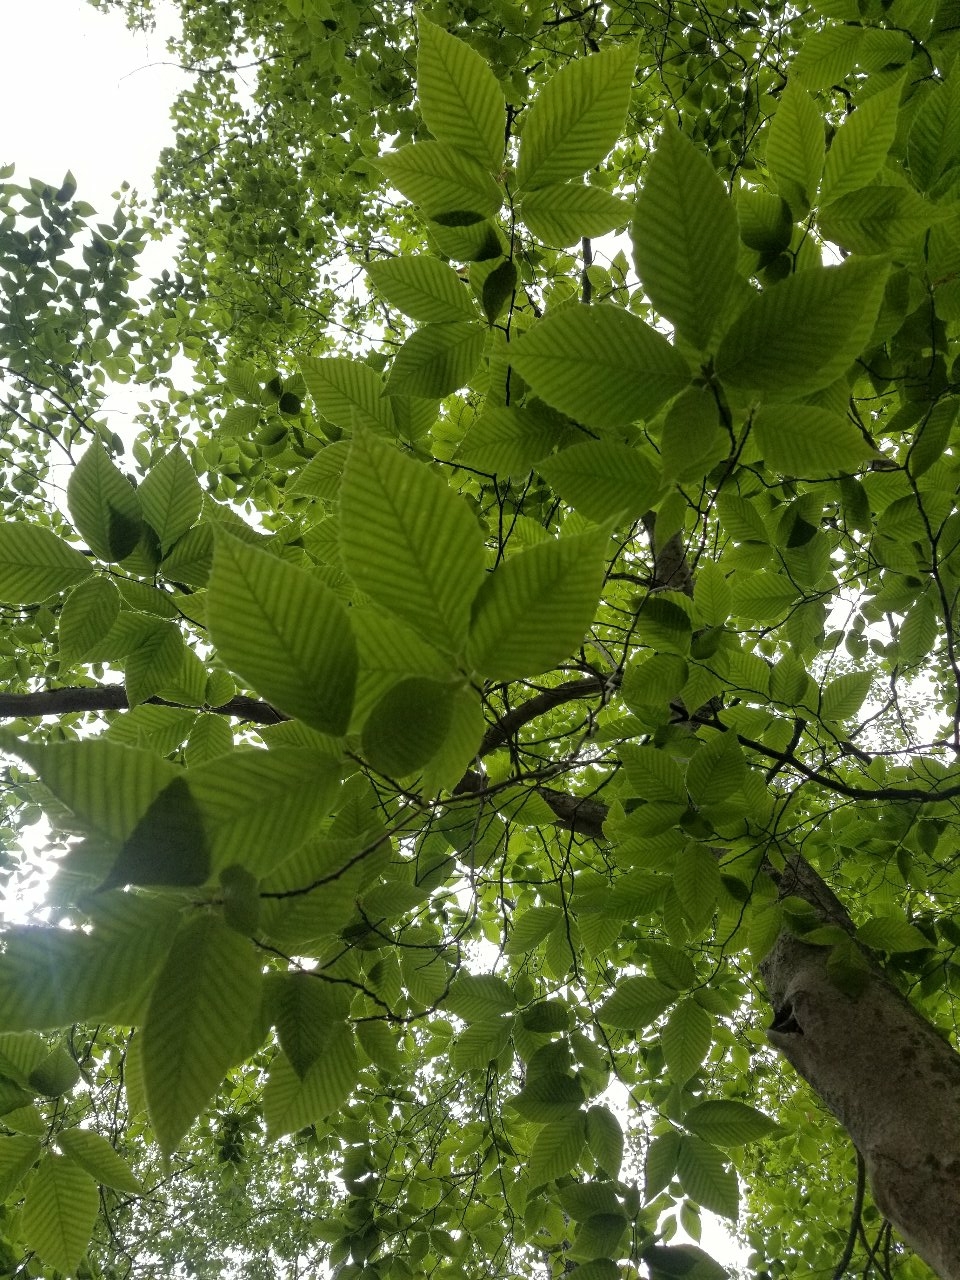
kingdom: Plantae
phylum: Tracheophyta
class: Magnoliopsida
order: Fagales
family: Fagaceae
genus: Fagus
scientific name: Fagus grandifolia
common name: American beech
